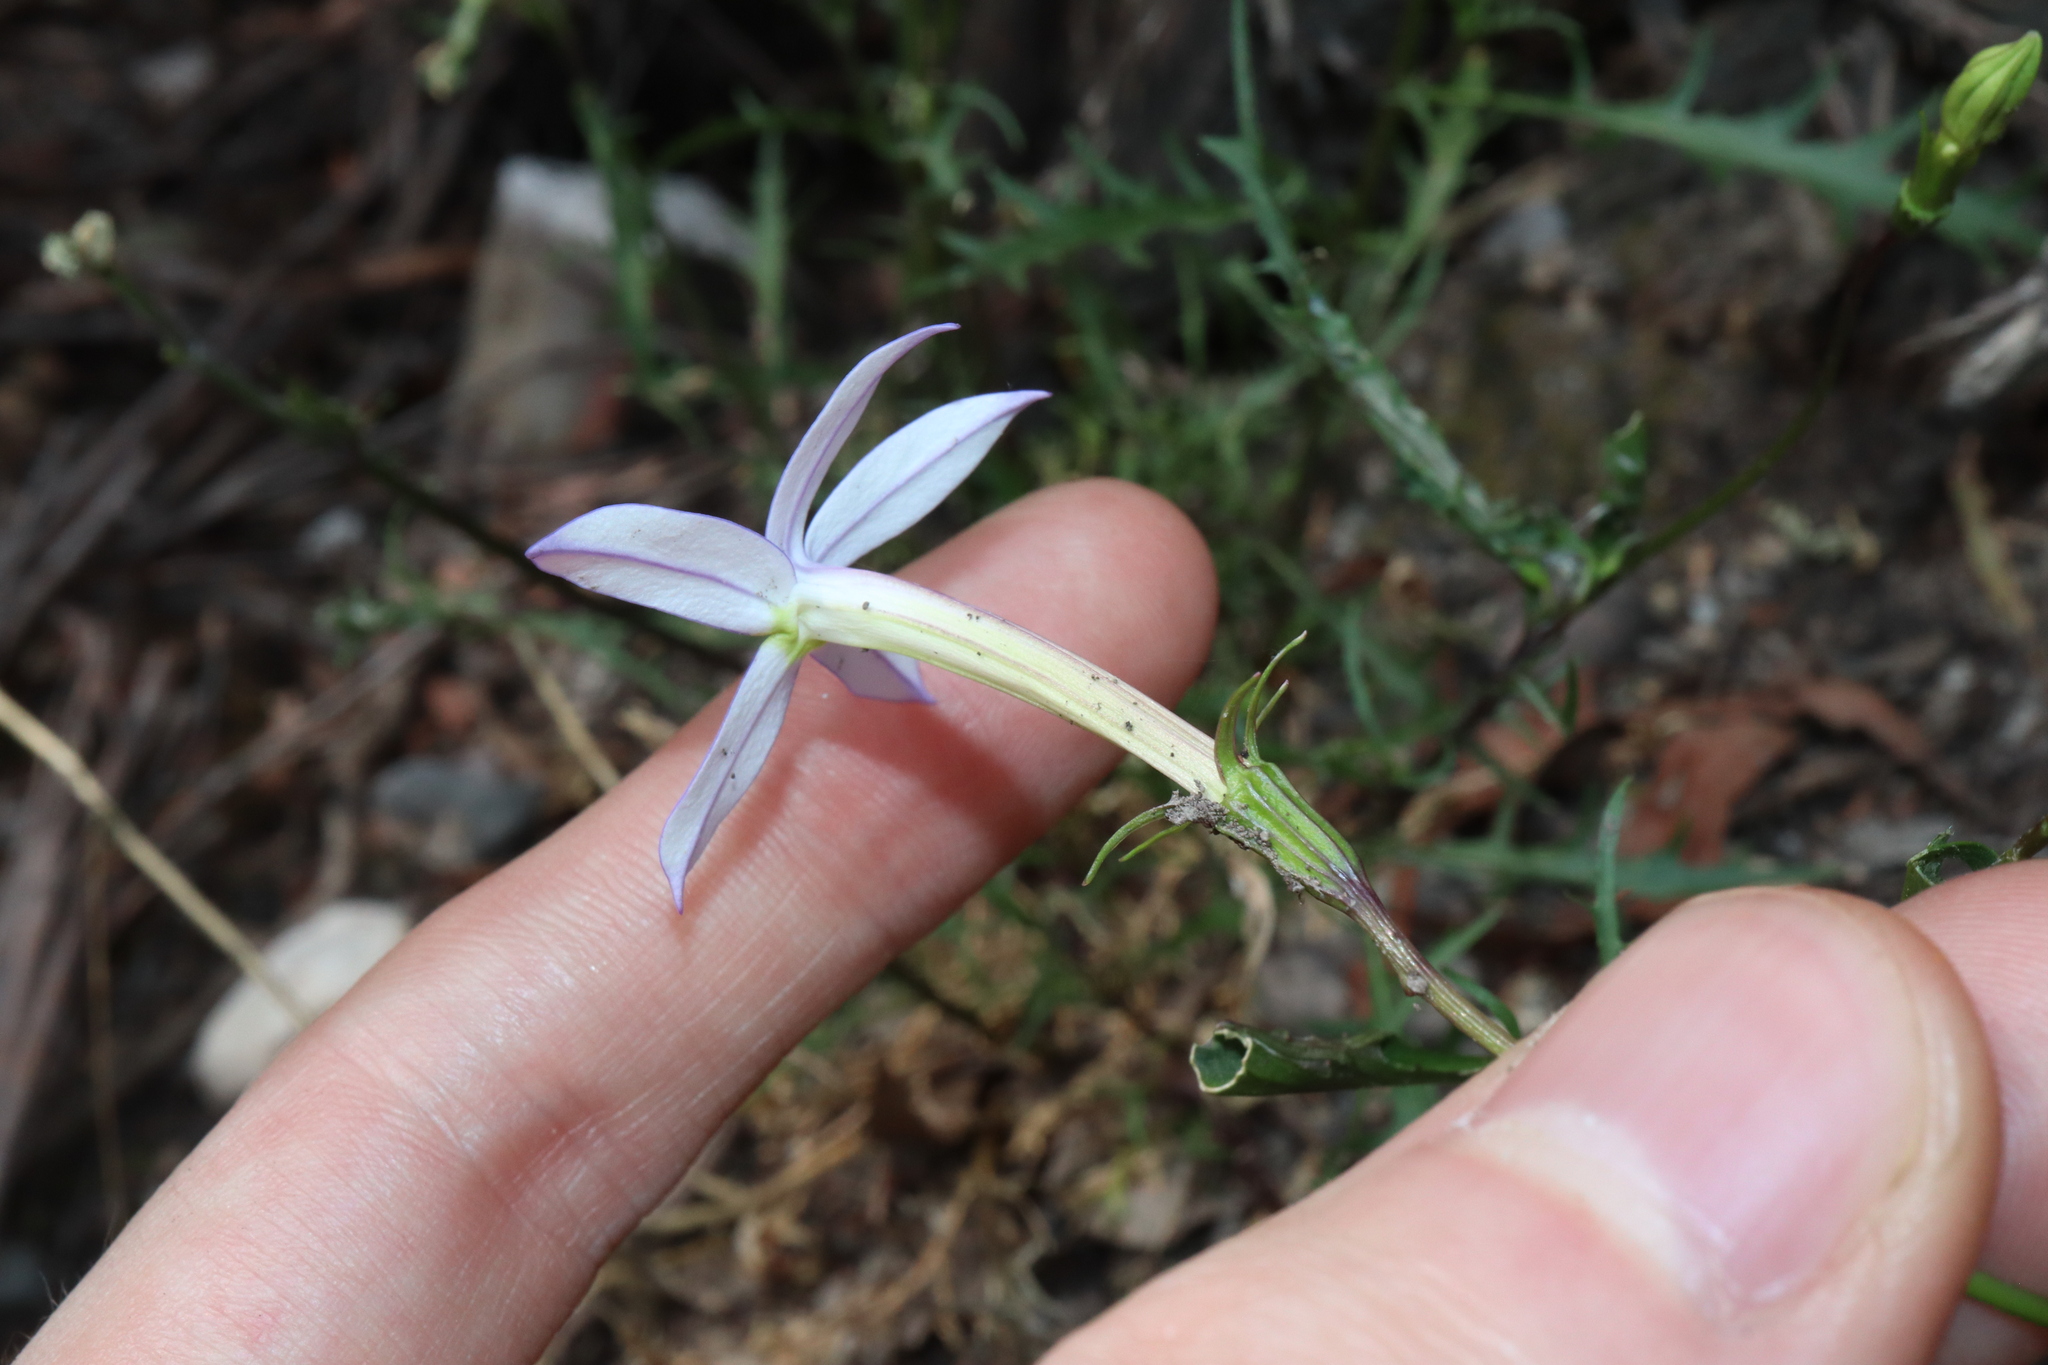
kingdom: Plantae
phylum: Tracheophyta
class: Magnoliopsida
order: Asterales
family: Campanulaceae
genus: Lithotoma
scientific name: Lithotoma axillaris
